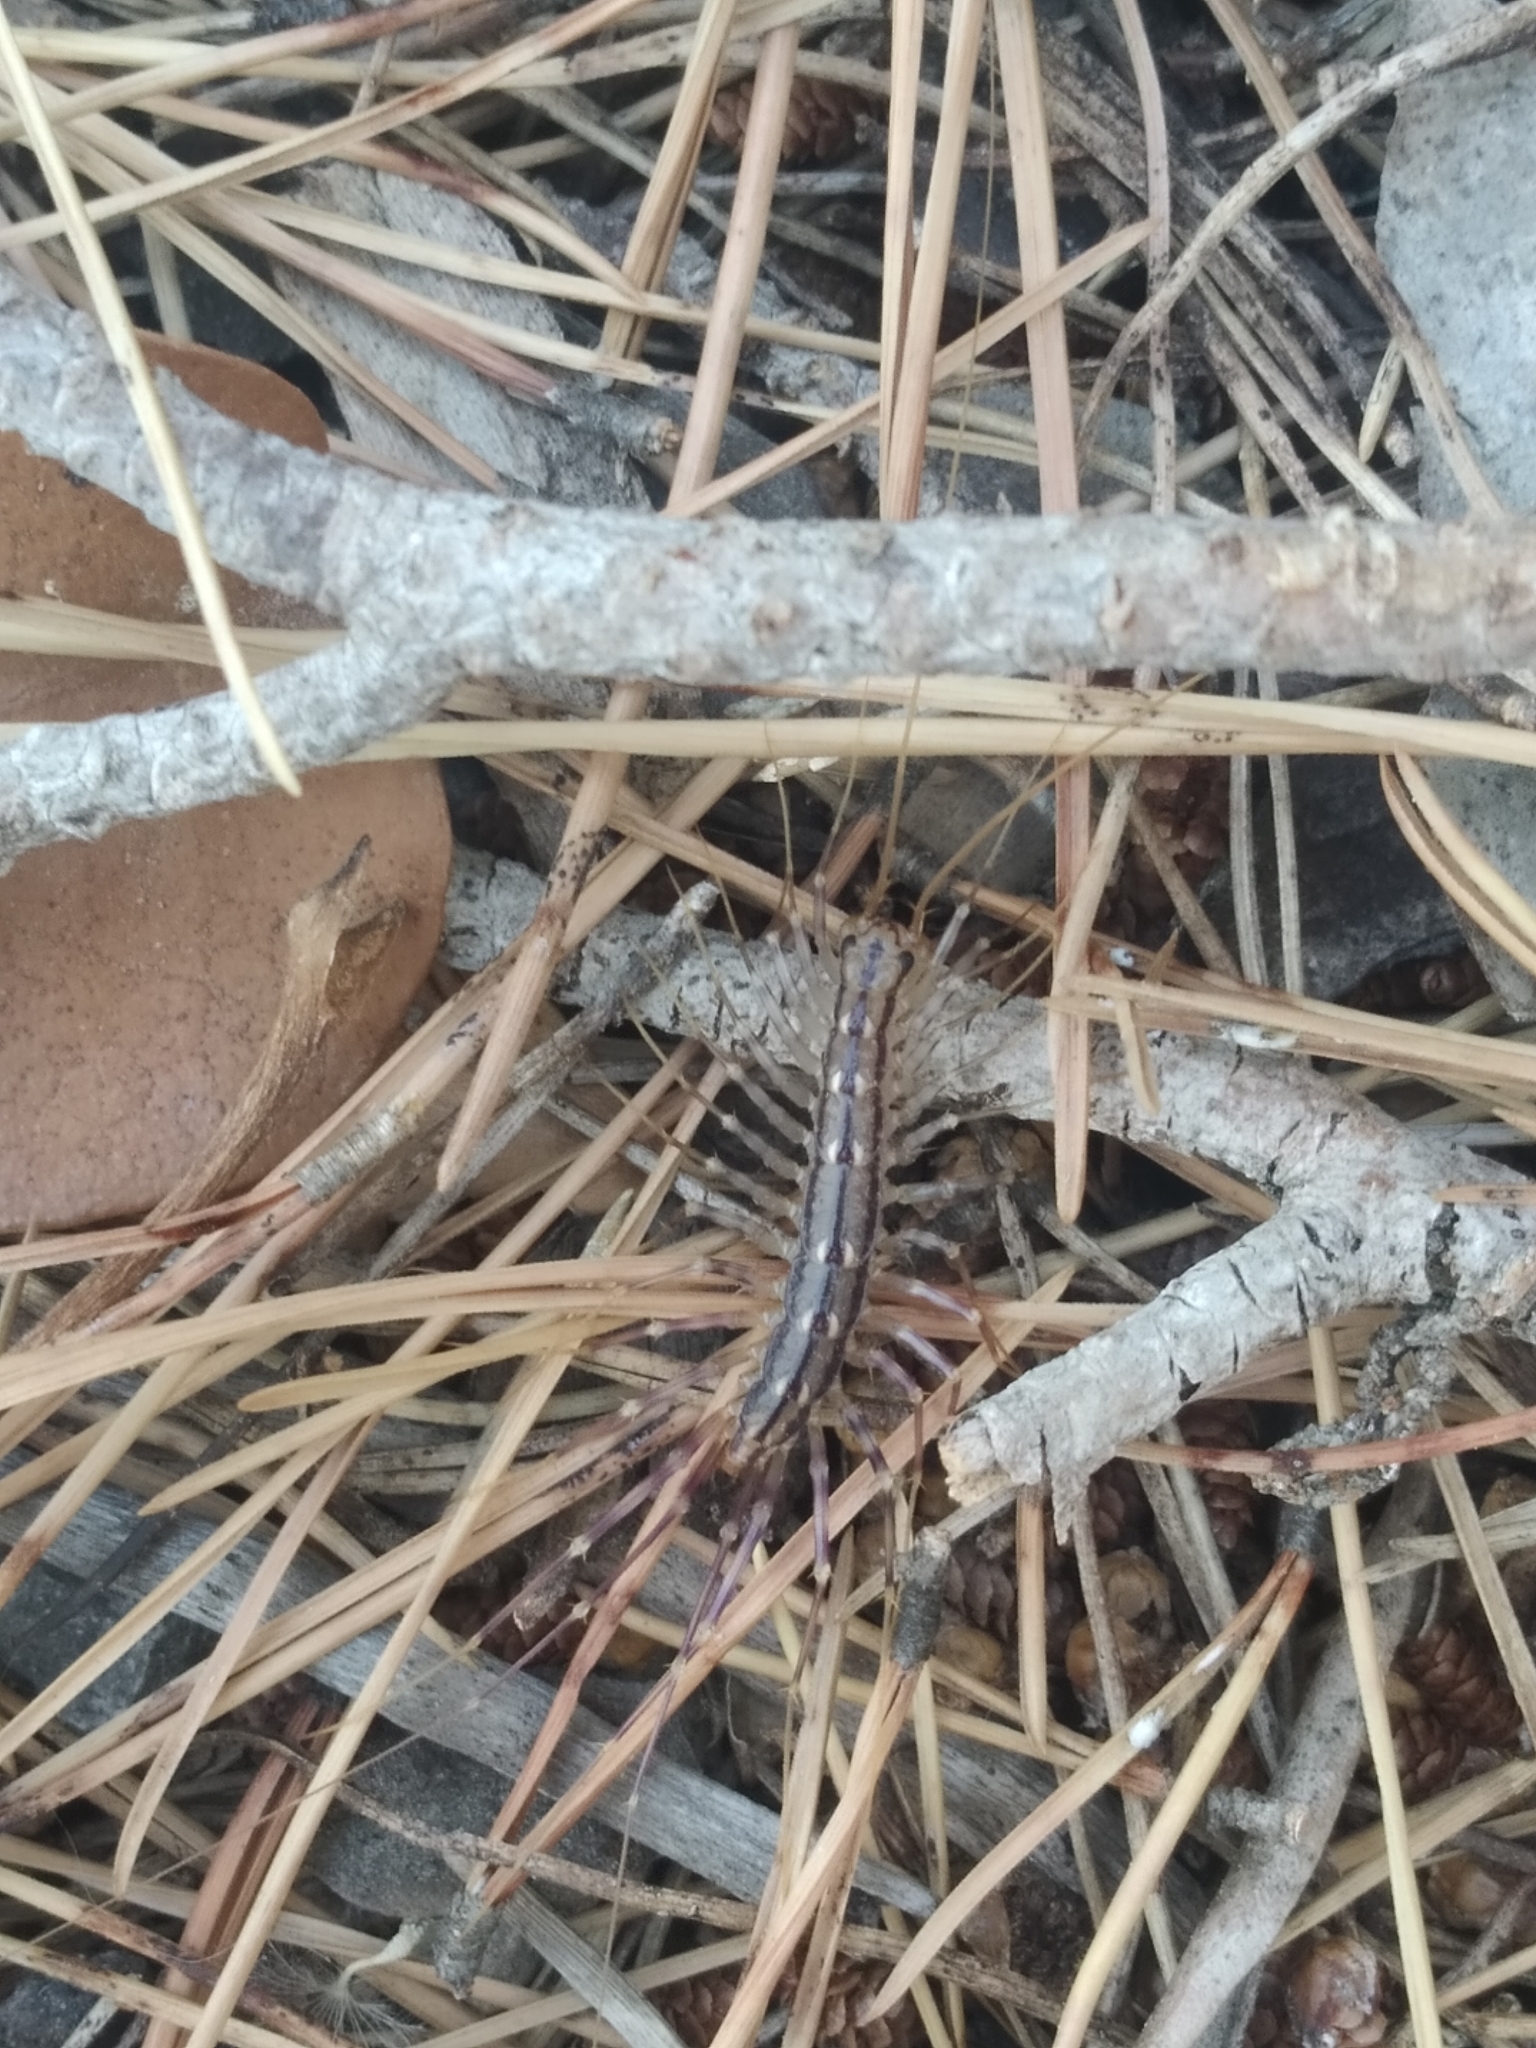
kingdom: Animalia
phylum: Arthropoda
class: Chilopoda
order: Scutigeromorpha
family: Scutigeridae
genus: Scutigera
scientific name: Scutigera coleoptrata
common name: House centipede
